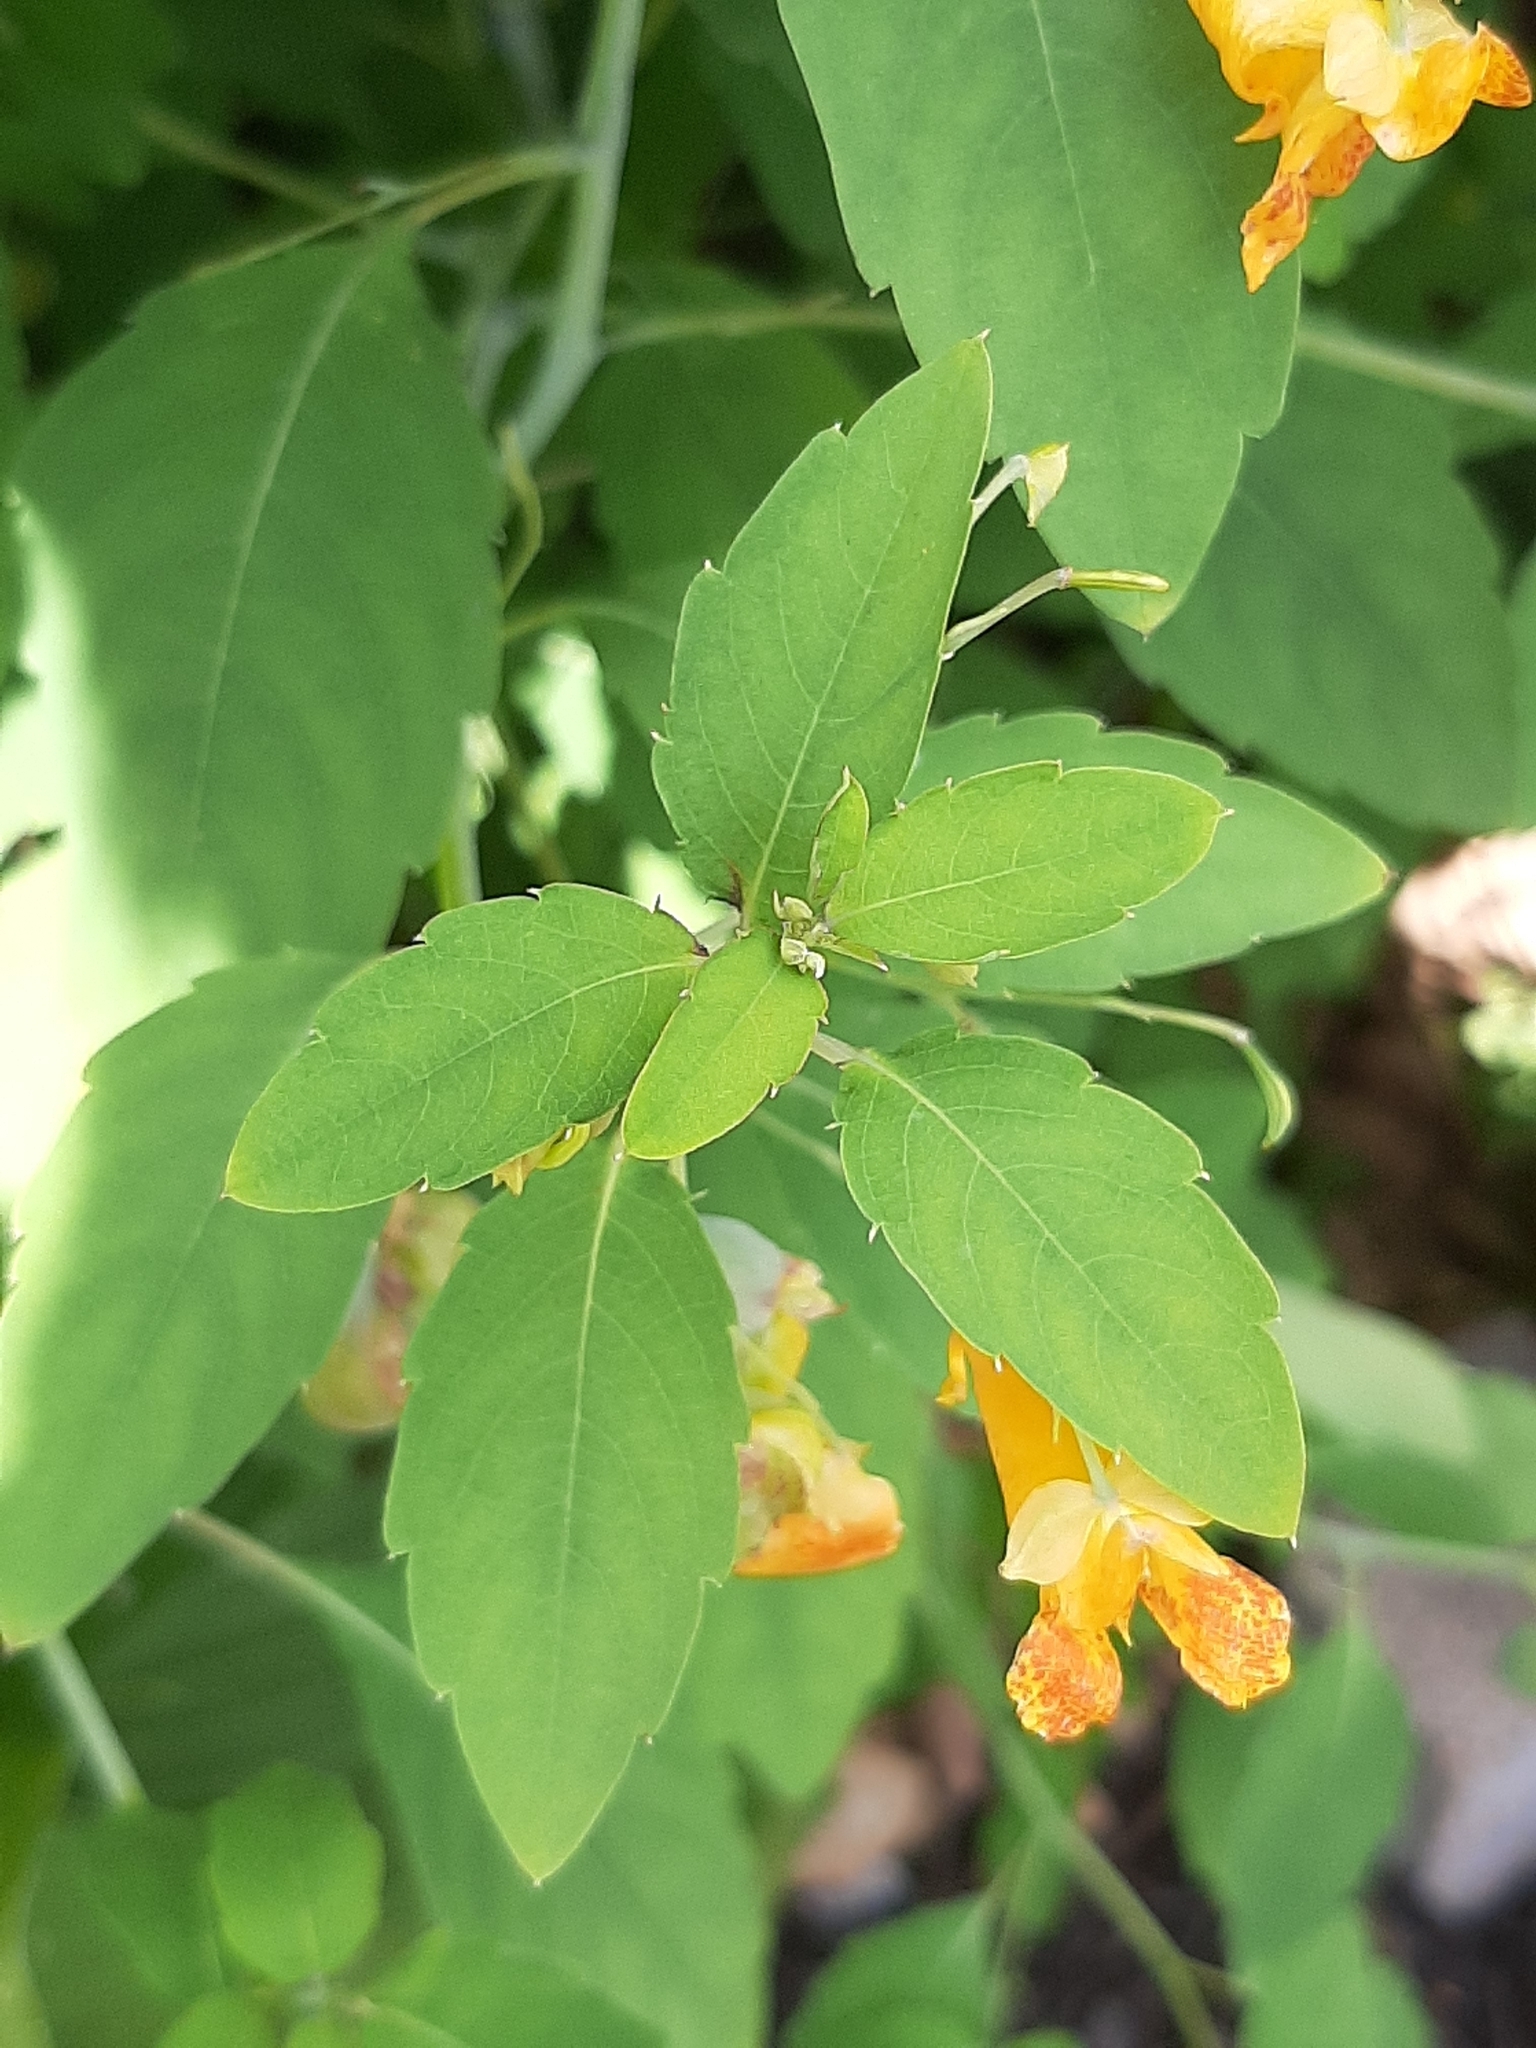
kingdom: Plantae
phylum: Tracheophyta
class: Magnoliopsida
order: Ericales
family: Balsaminaceae
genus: Impatiens
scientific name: Impatiens capensis
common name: Orange balsam
